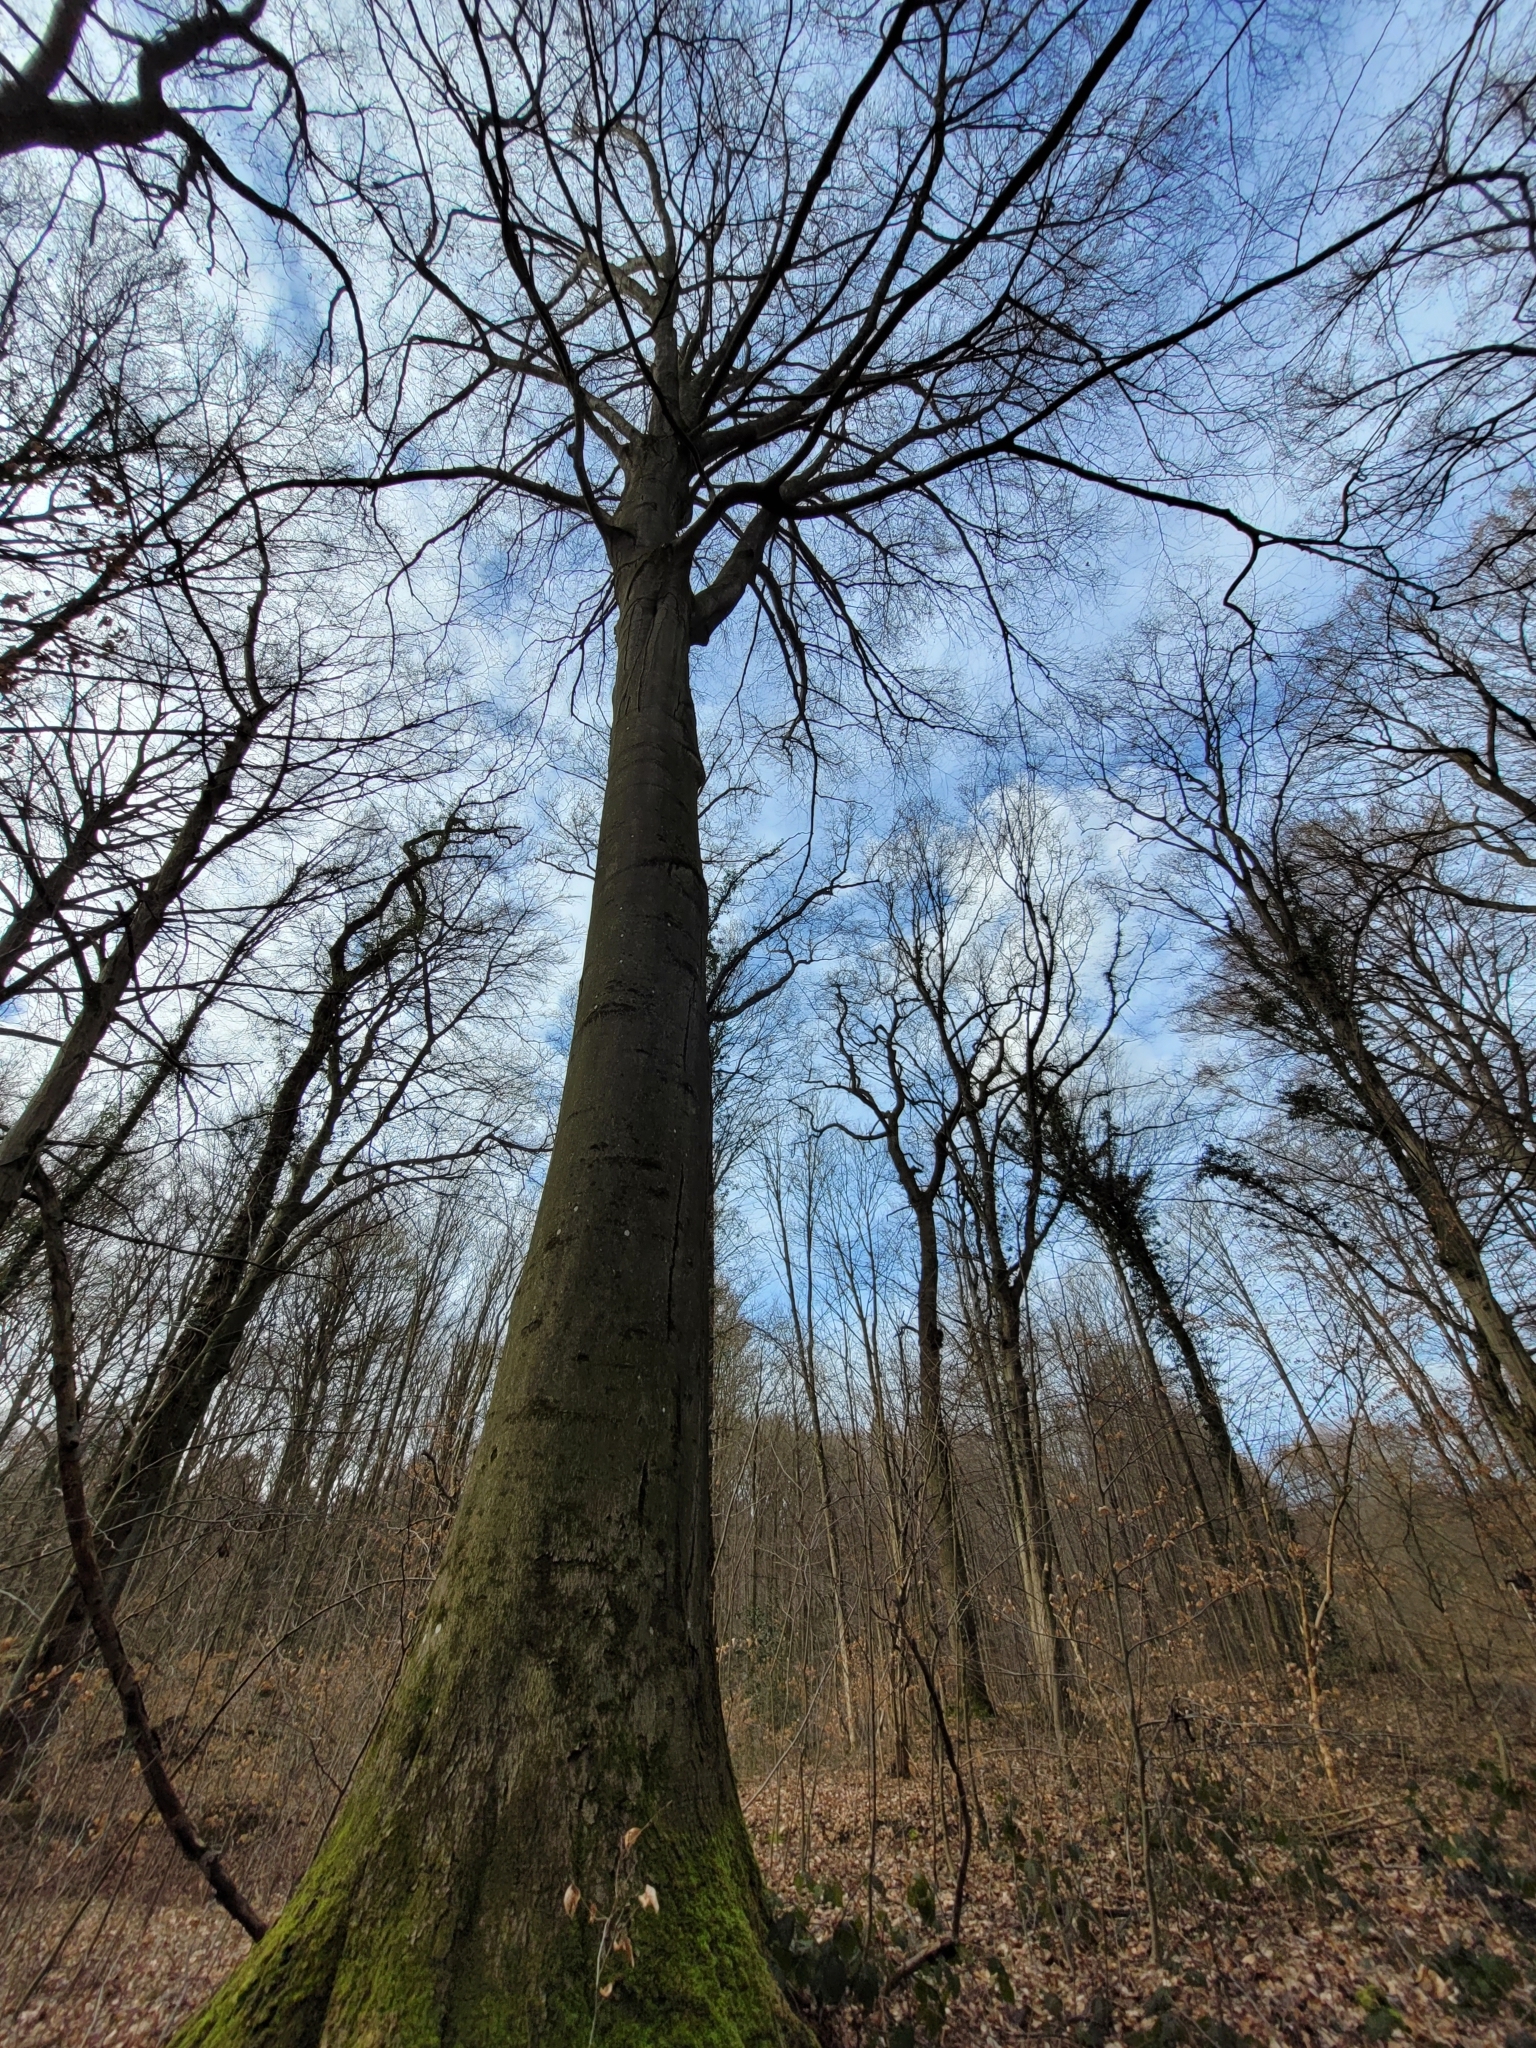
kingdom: Plantae
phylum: Tracheophyta
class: Magnoliopsida
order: Fagales
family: Fagaceae
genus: Fagus
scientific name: Fagus sylvatica
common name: Beech
